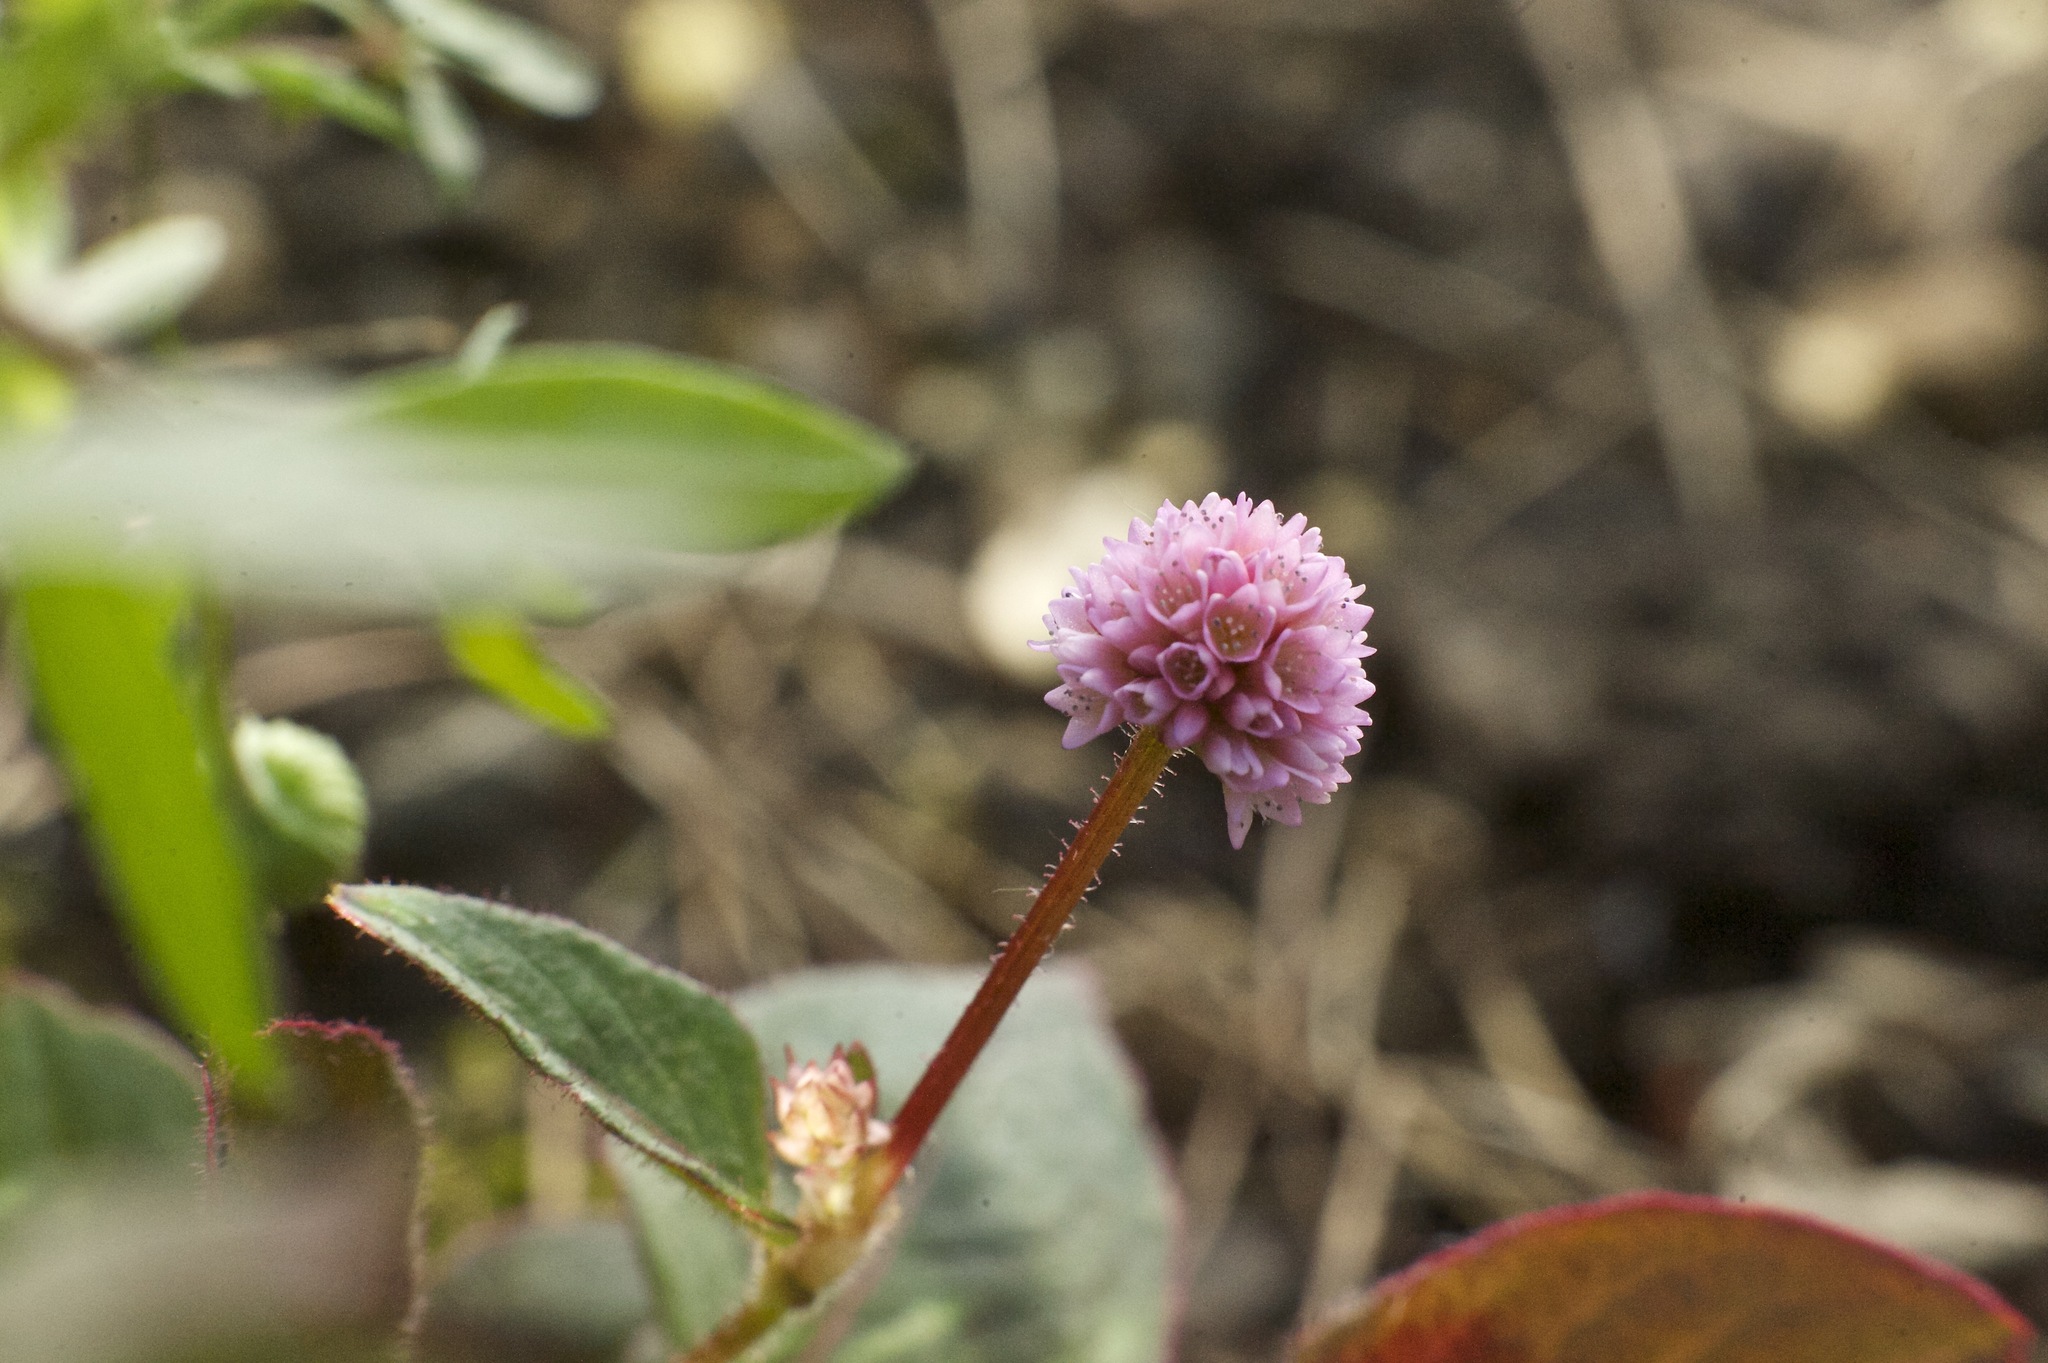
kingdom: Plantae
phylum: Tracheophyta
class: Magnoliopsida
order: Caryophyllales
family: Polygonaceae
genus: Persicaria
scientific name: Persicaria capitata
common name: Pinkhead smartweed
